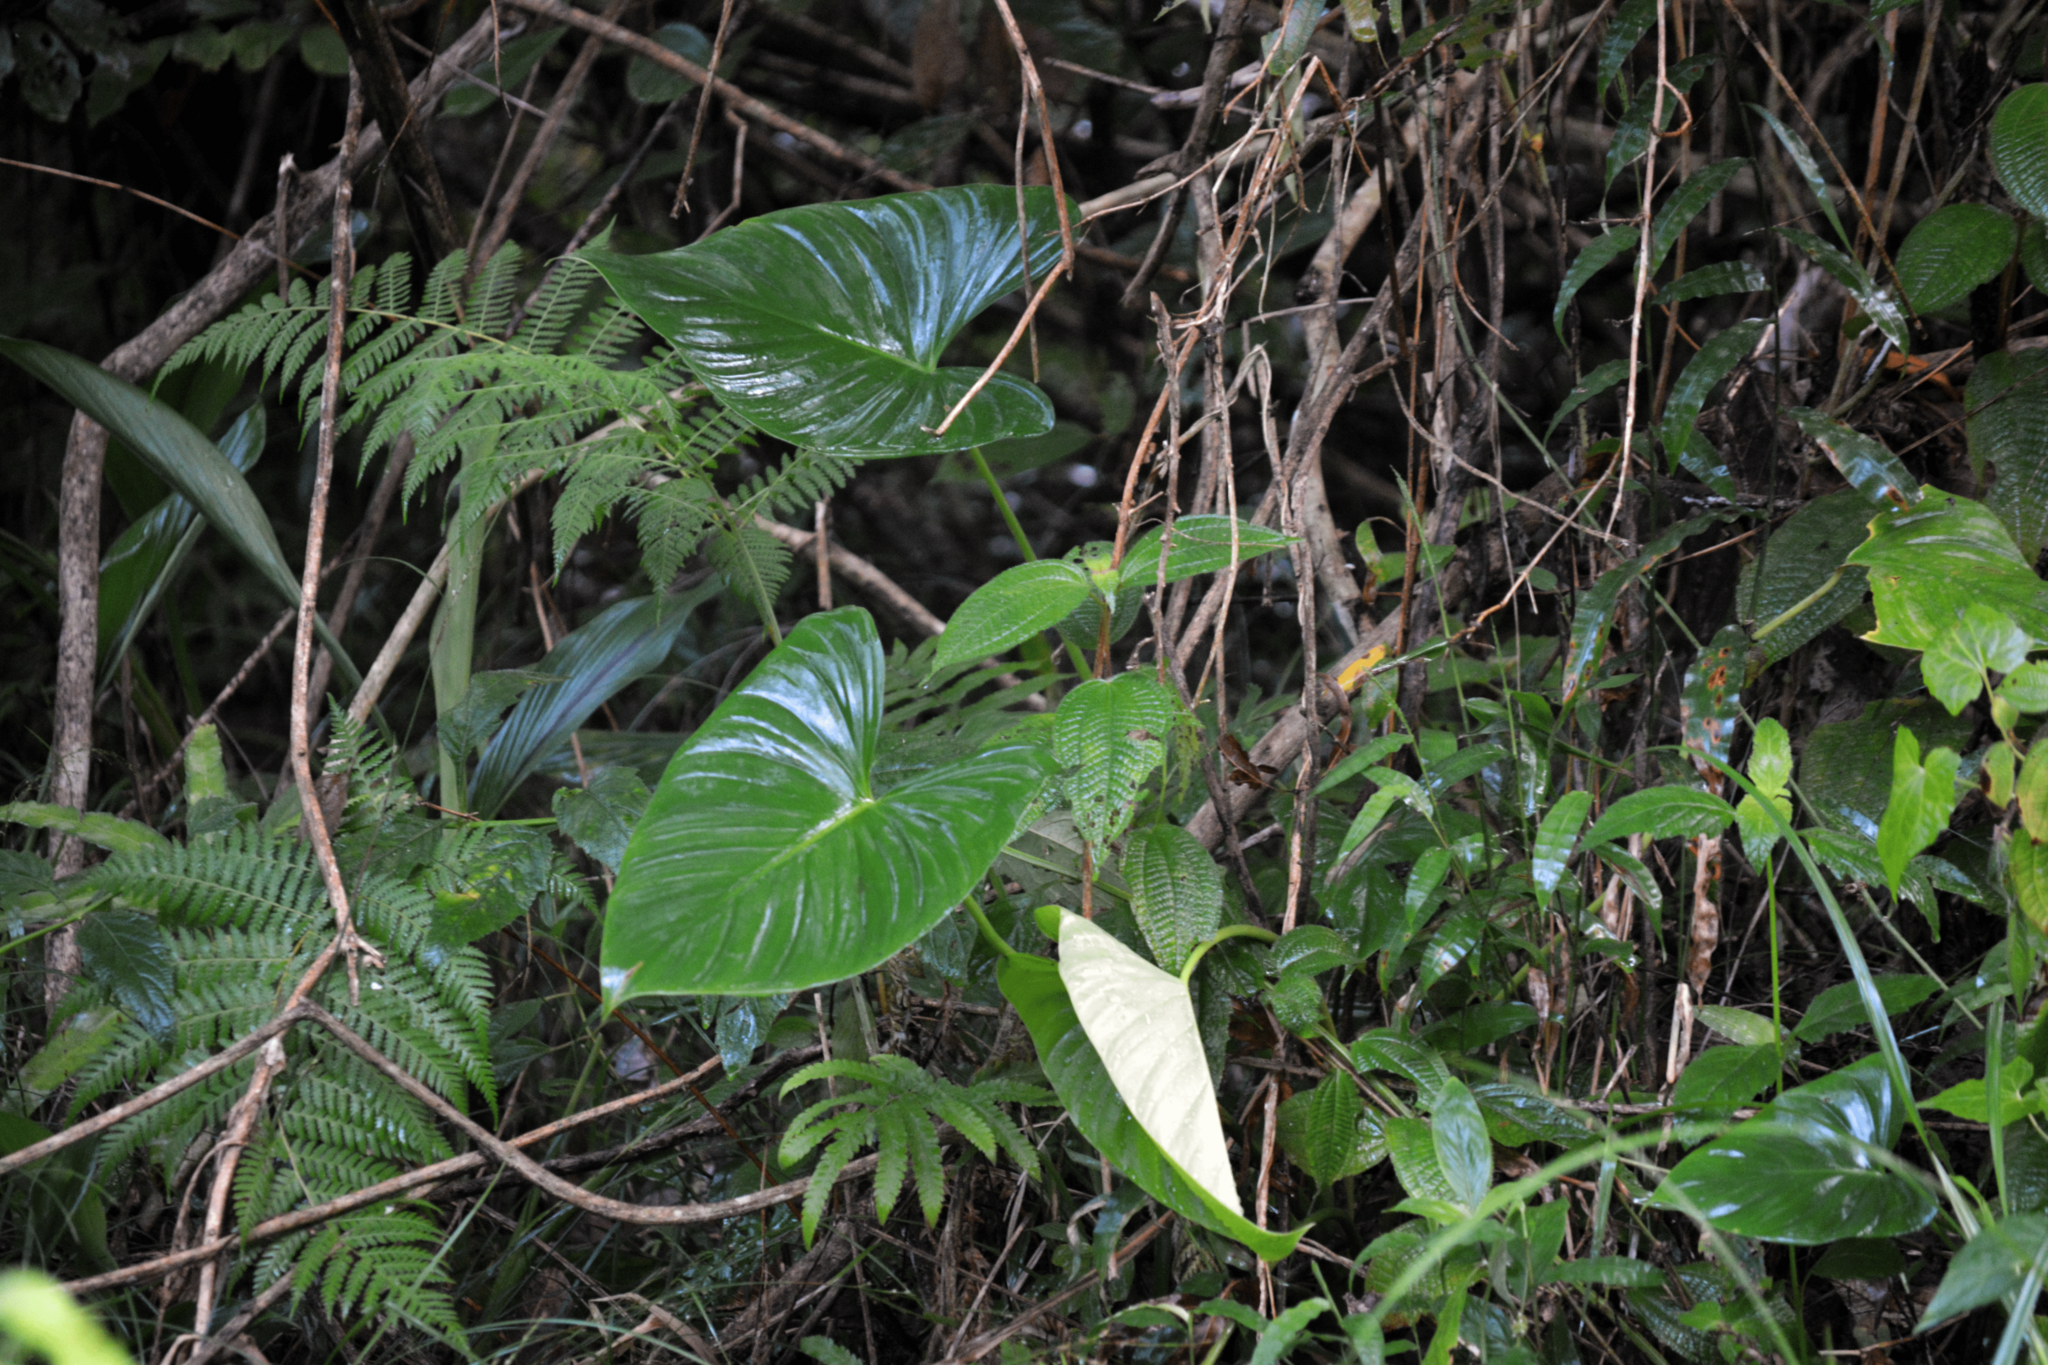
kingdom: Plantae
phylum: Tracheophyta
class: Liliopsida
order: Alismatales
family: Araceae
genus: Homalomena
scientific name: Homalomena rubescens
